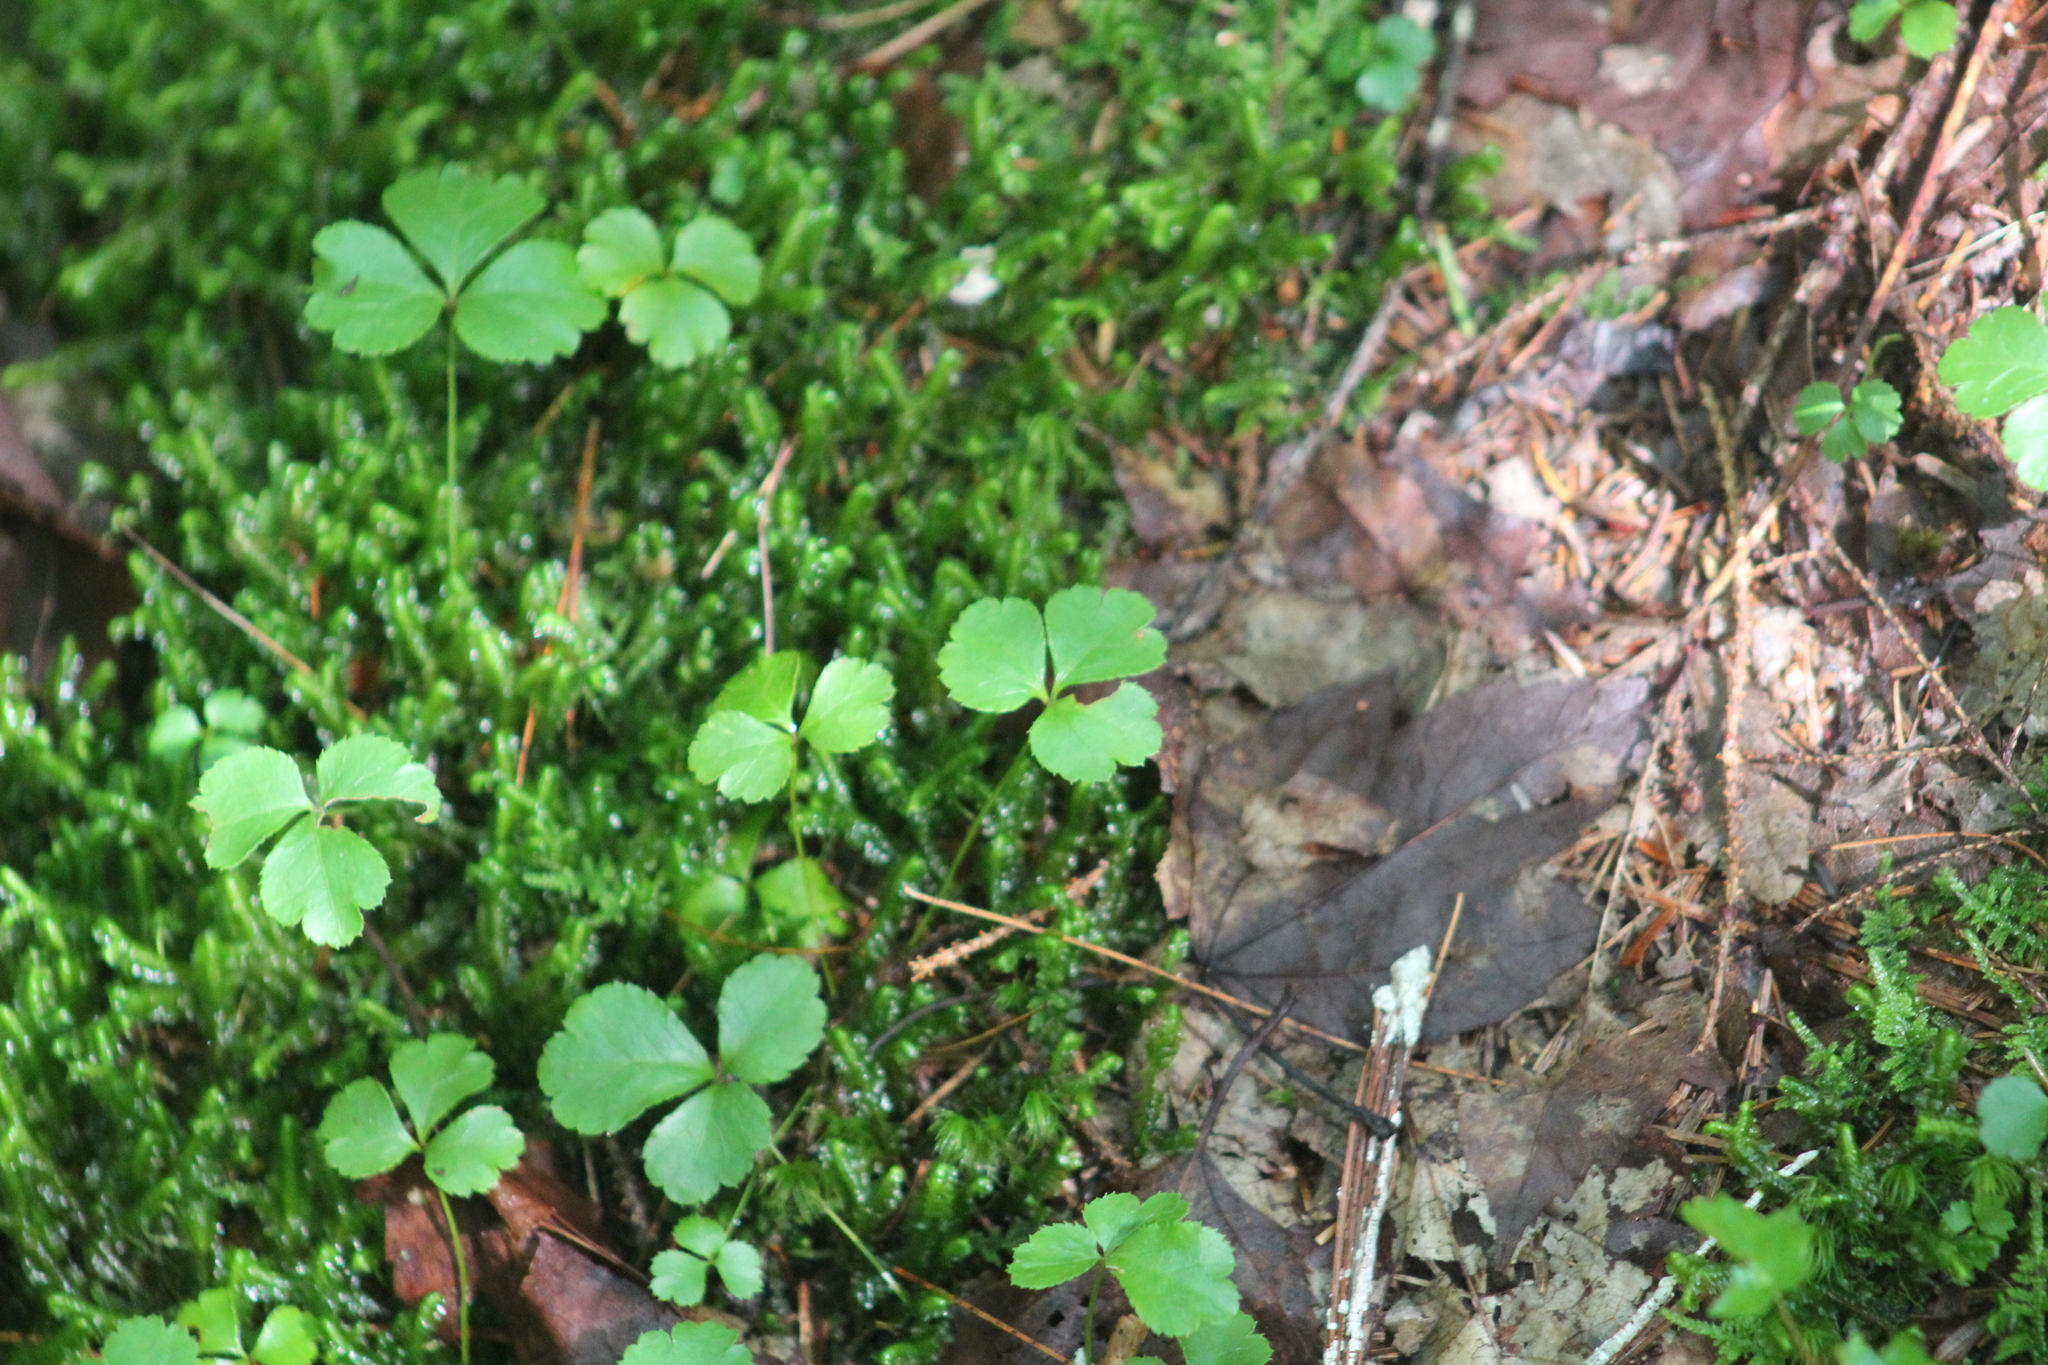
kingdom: Plantae
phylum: Tracheophyta
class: Magnoliopsida
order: Ranunculales
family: Ranunculaceae
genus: Coptis
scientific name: Coptis trifolia
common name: Canker-root
